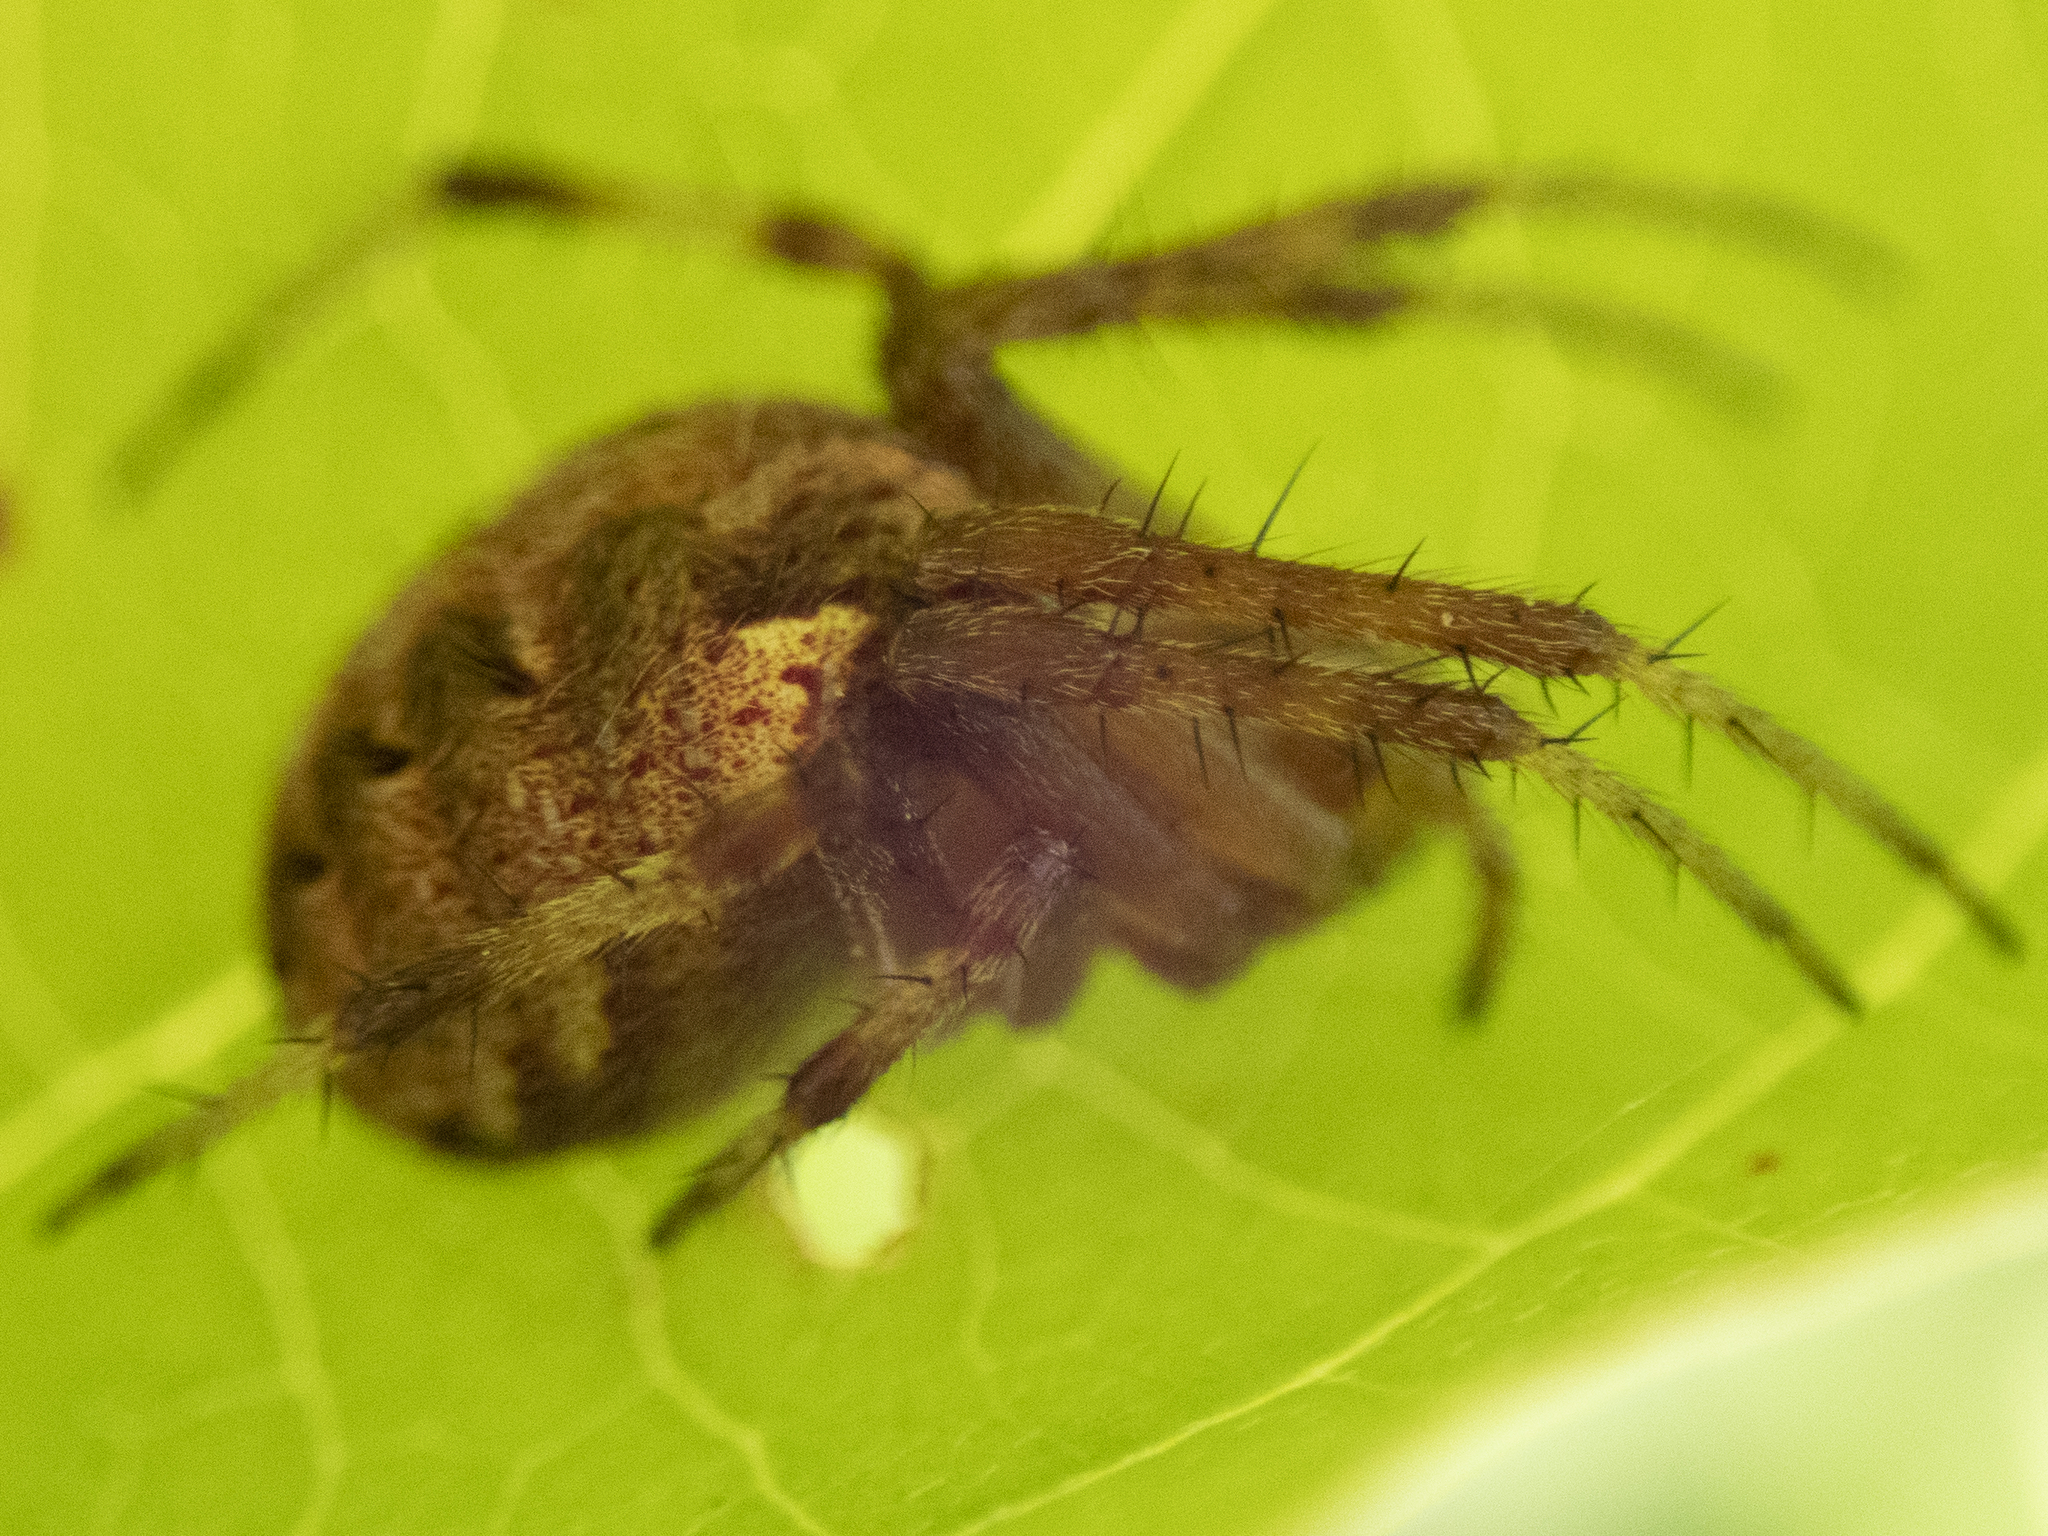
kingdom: Animalia
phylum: Arthropoda
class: Arachnida
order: Araneae
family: Araneidae
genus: Neoscona
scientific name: Neoscona arabesca
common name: Orb weavers
